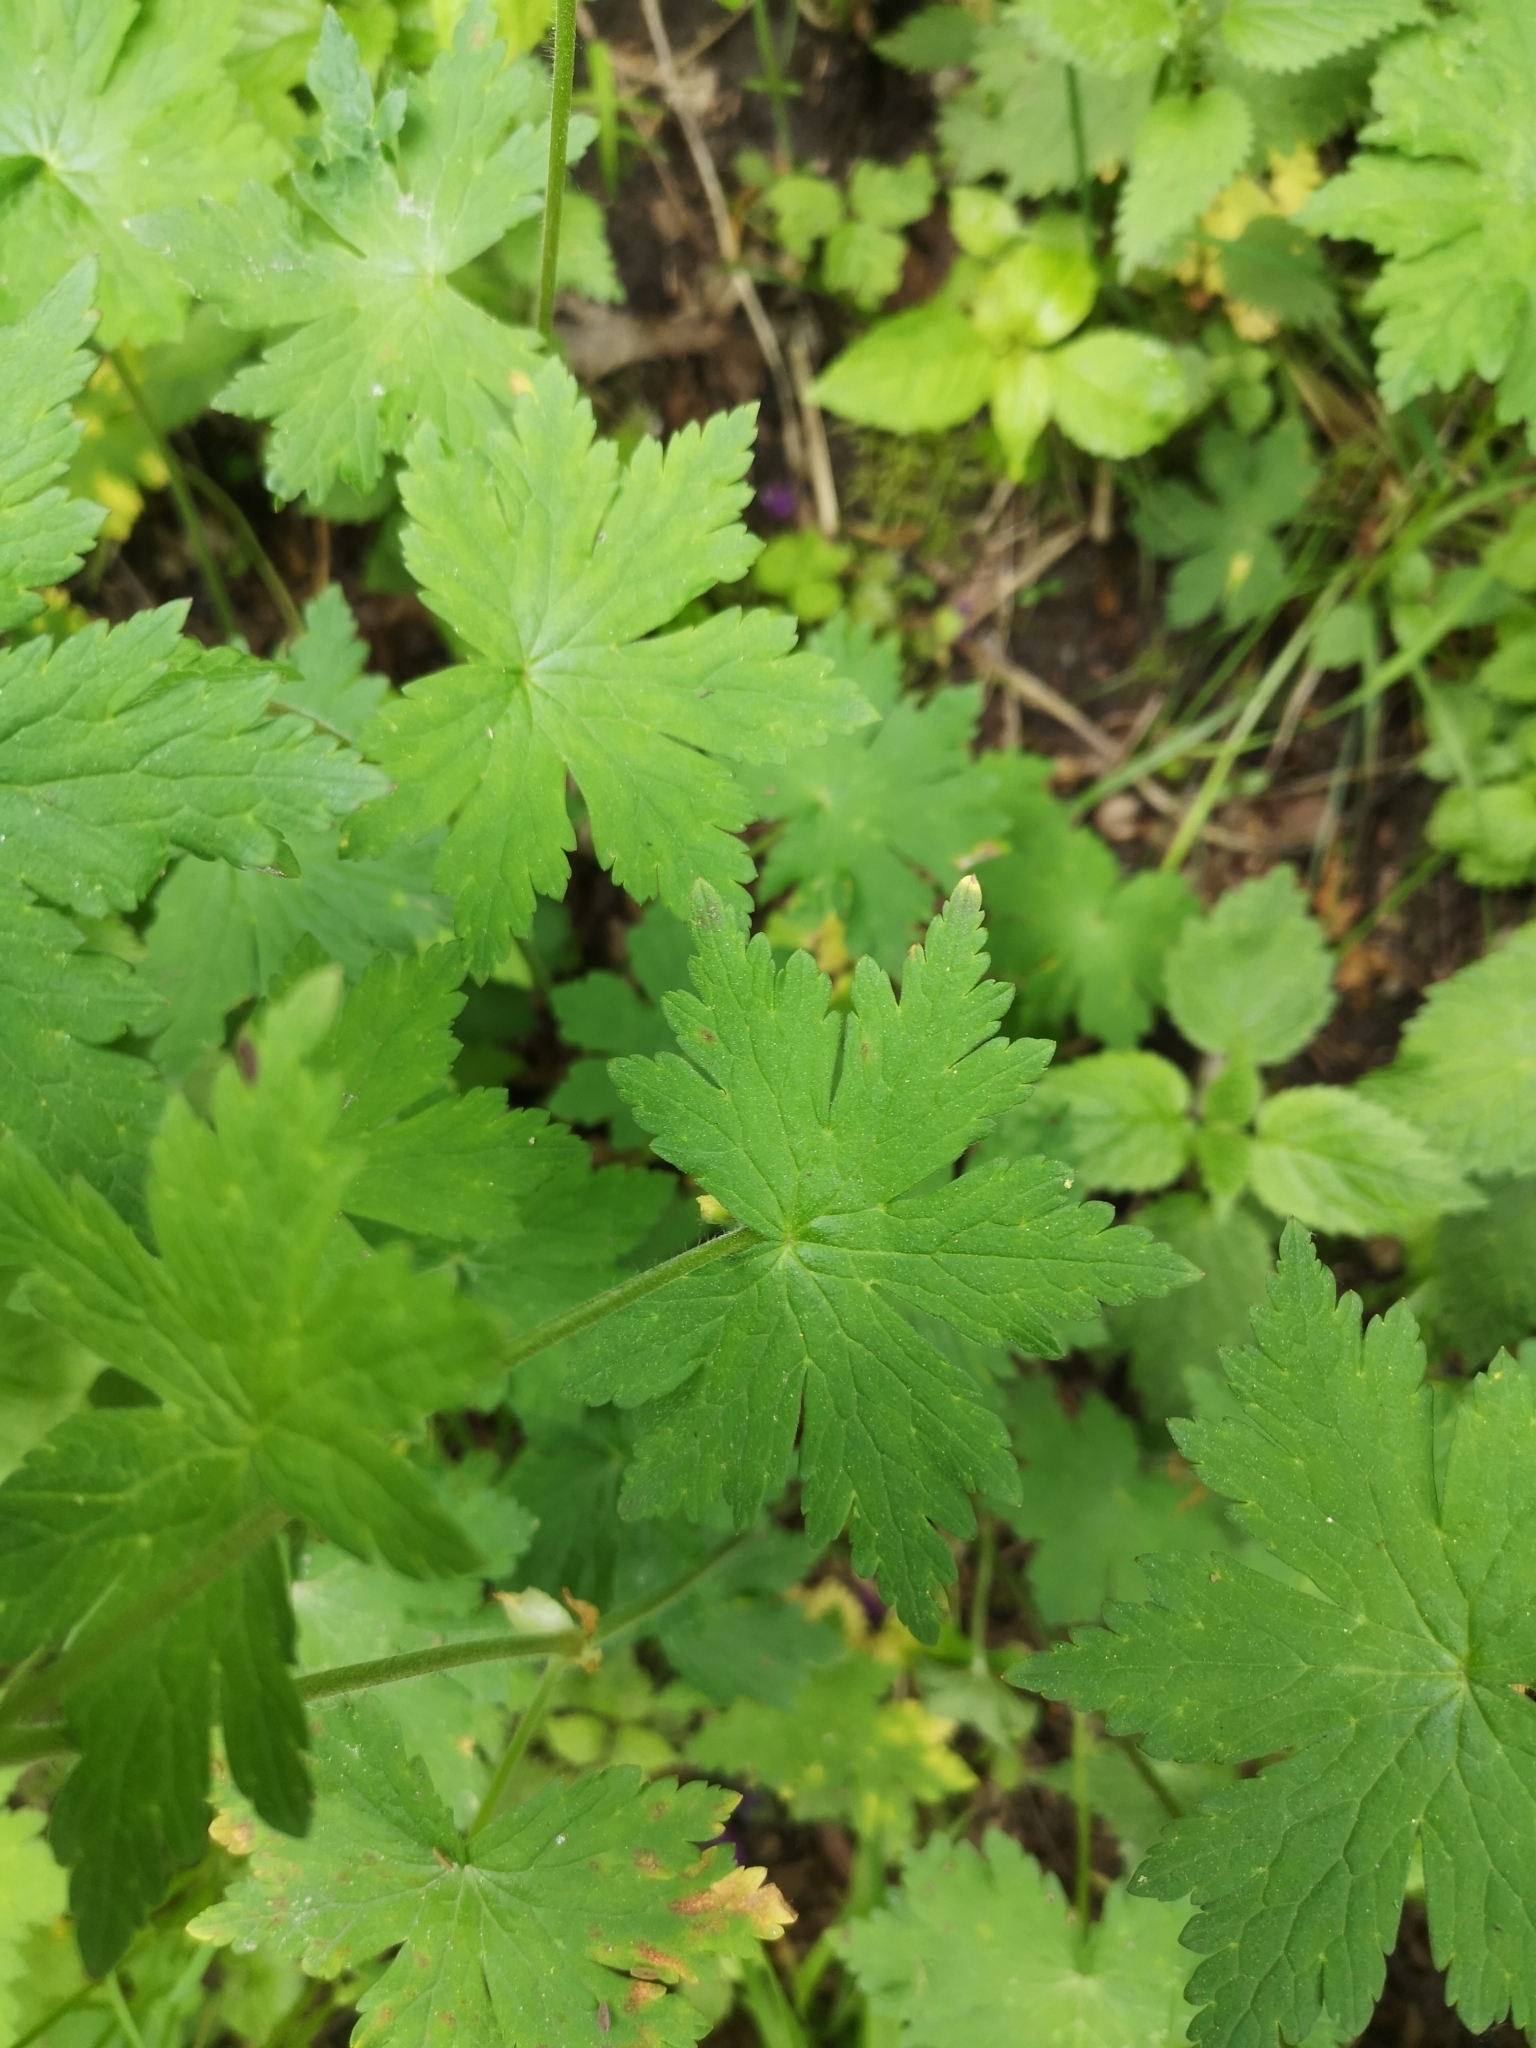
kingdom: Plantae
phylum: Tracheophyta
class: Magnoliopsida
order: Geraniales
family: Geraniaceae
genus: Geranium
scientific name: Geranium phaeum
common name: Dusky crane's-bill
